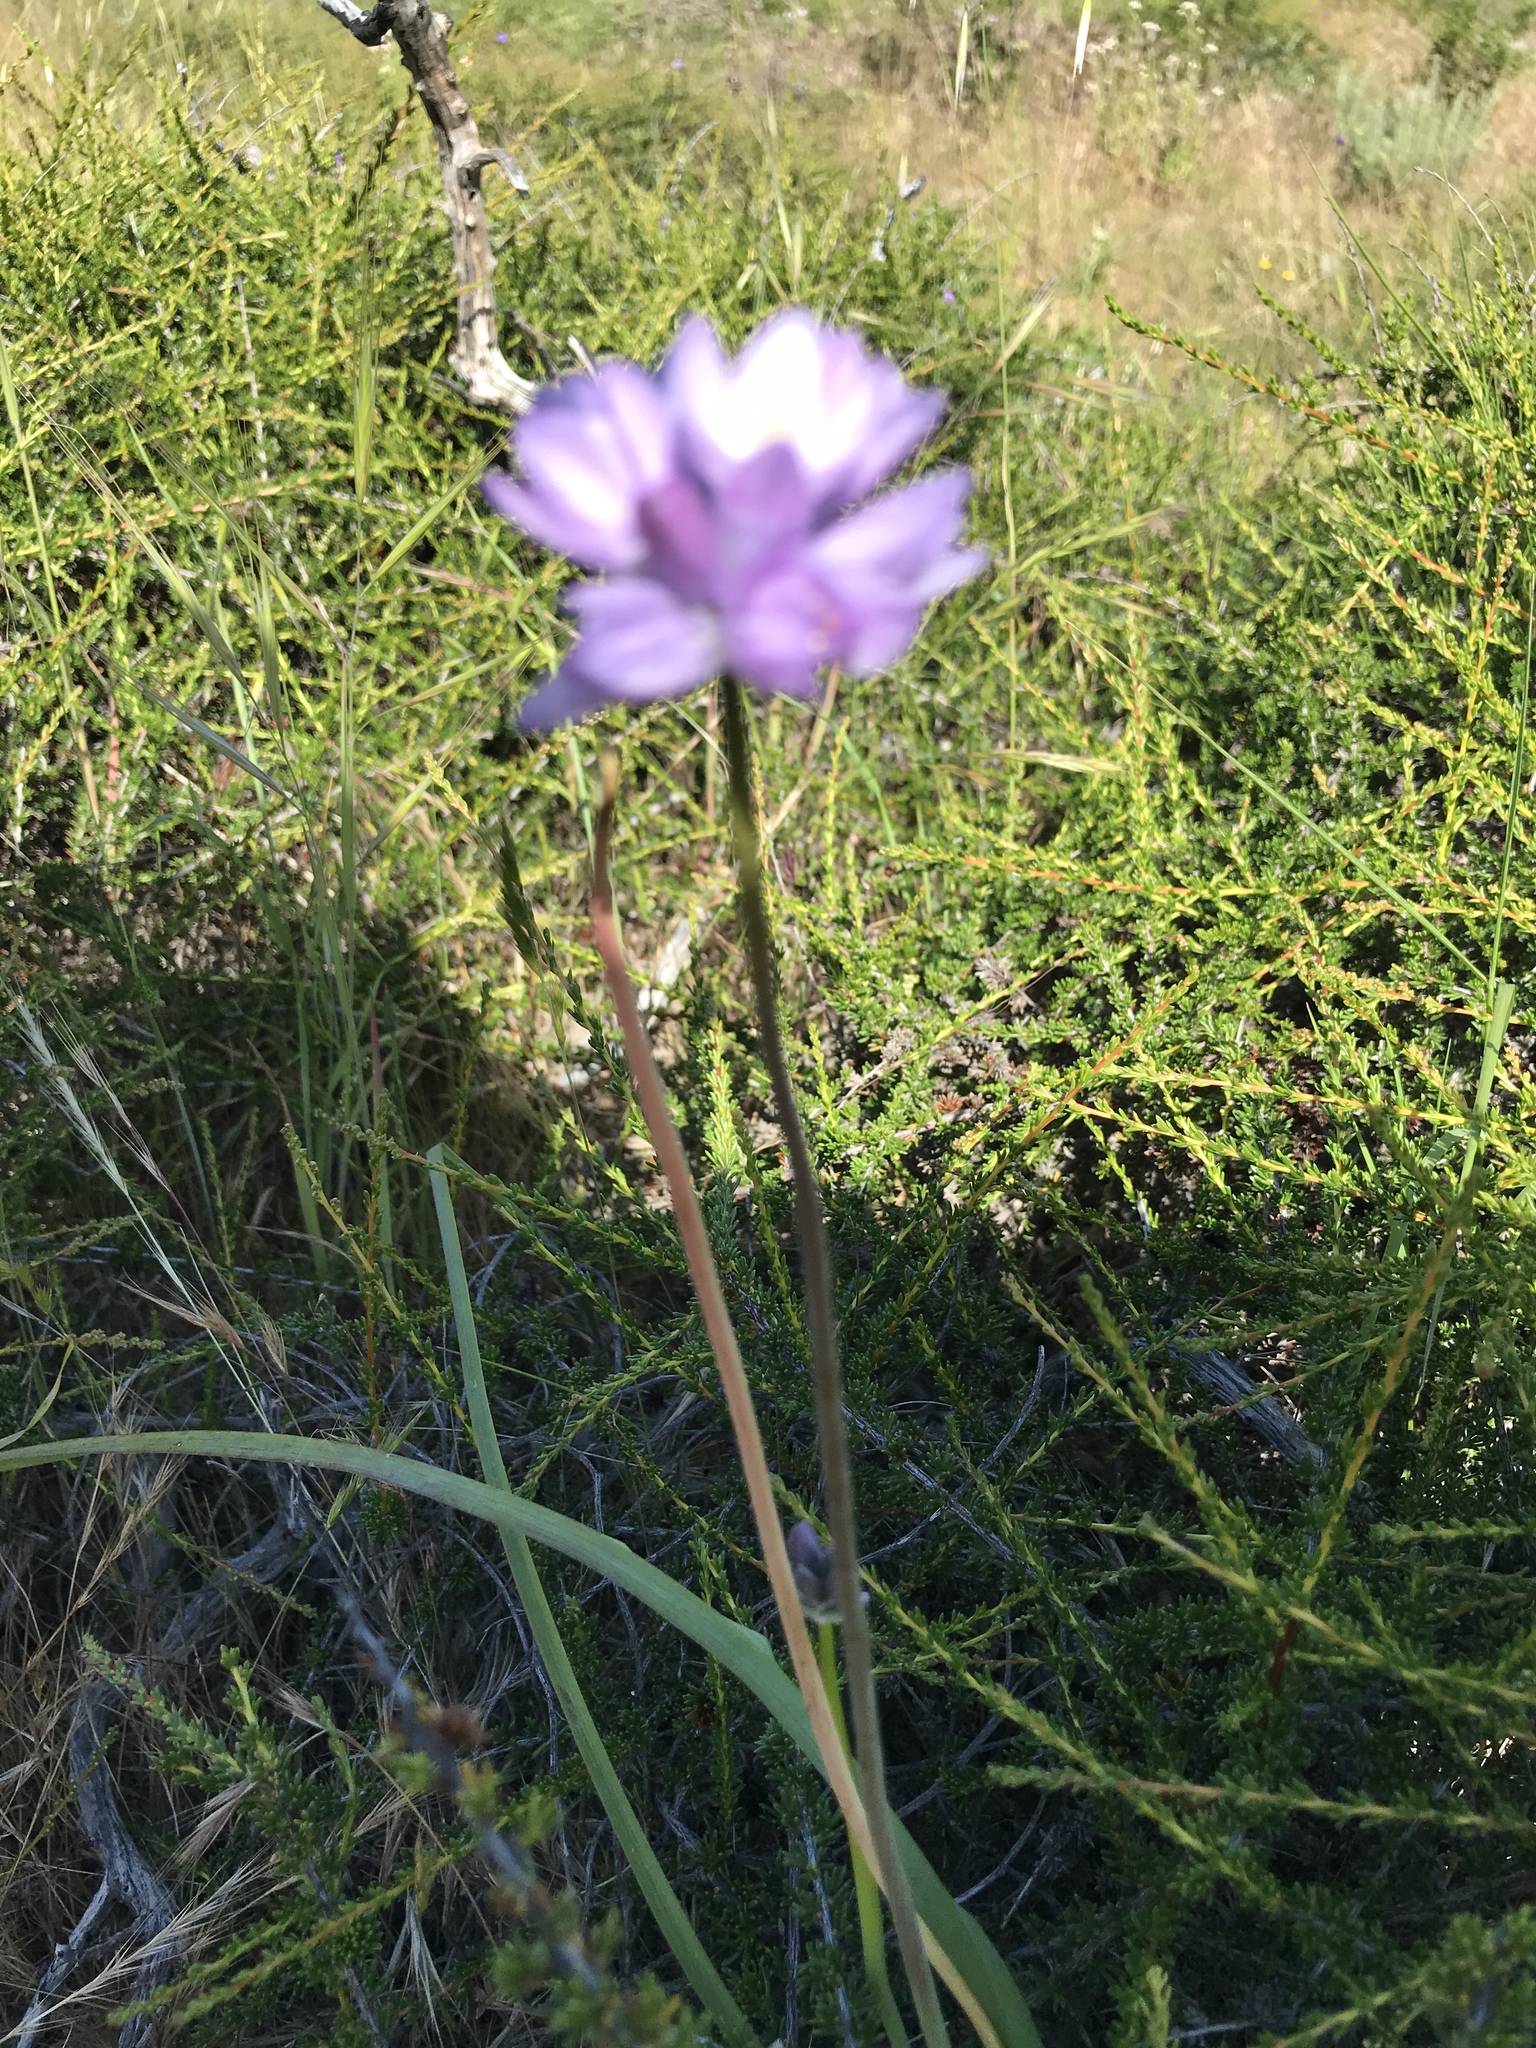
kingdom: Plantae
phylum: Tracheophyta
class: Liliopsida
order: Asparagales
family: Asparagaceae
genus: Dipterostemon
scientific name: Dipterostemon capitatus
